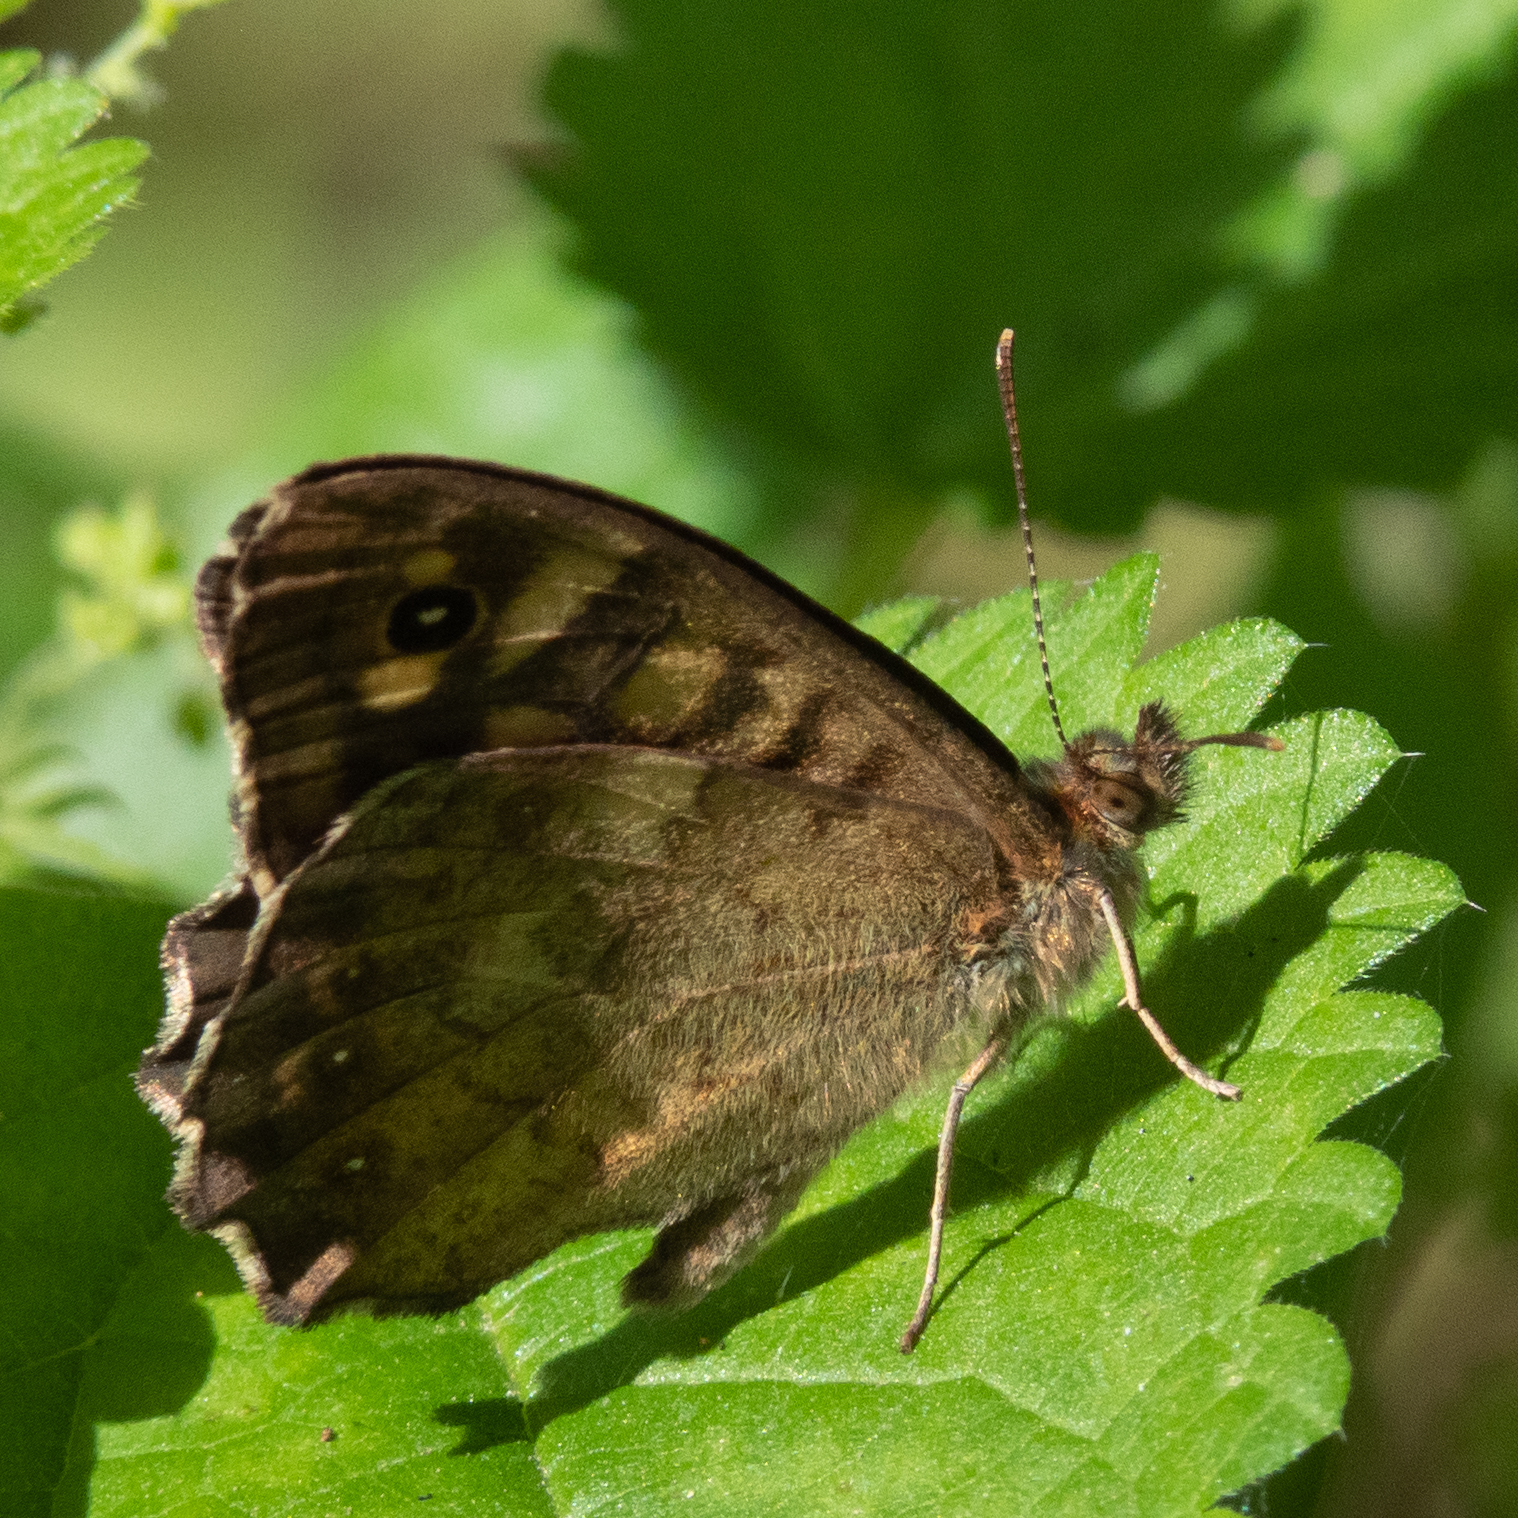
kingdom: Animalia
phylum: Arthropoda
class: Insecta
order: Lepidoptera
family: Nymphalidae
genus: Pararge
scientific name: Pararge aegeria
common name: Speckled wood
